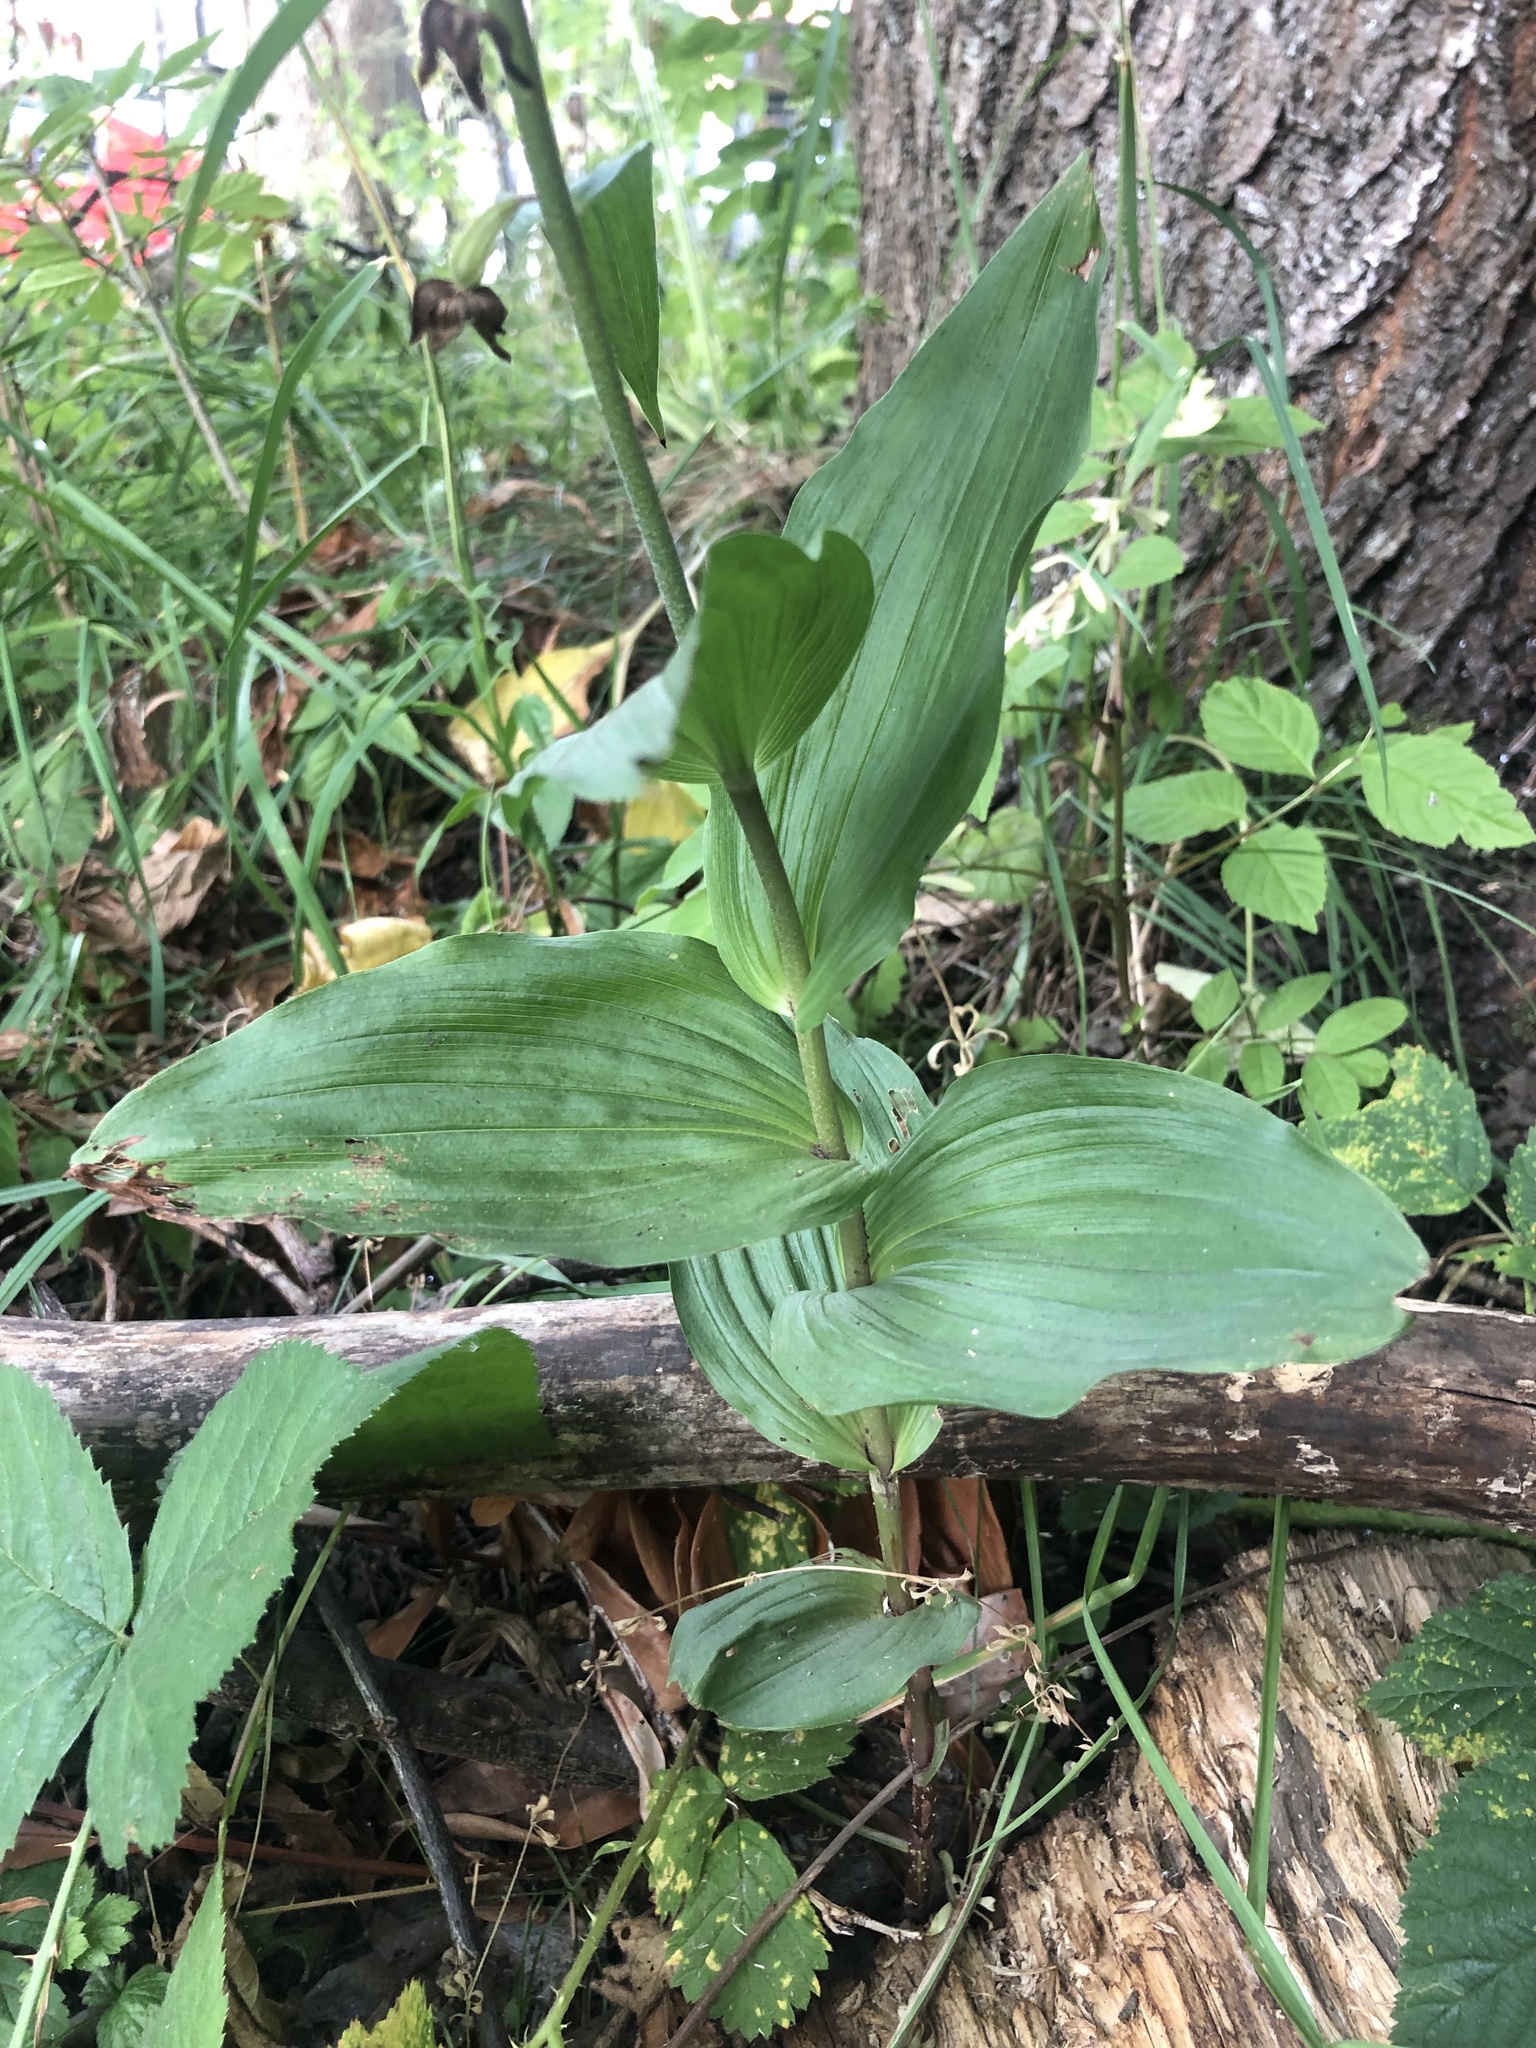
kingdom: Plantae
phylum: Tracheophyta
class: Liliopsida
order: Asparagales
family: Orchidaceae
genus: Epipactis
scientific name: Epipactis helleborine
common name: Broad-leaved helleborine
